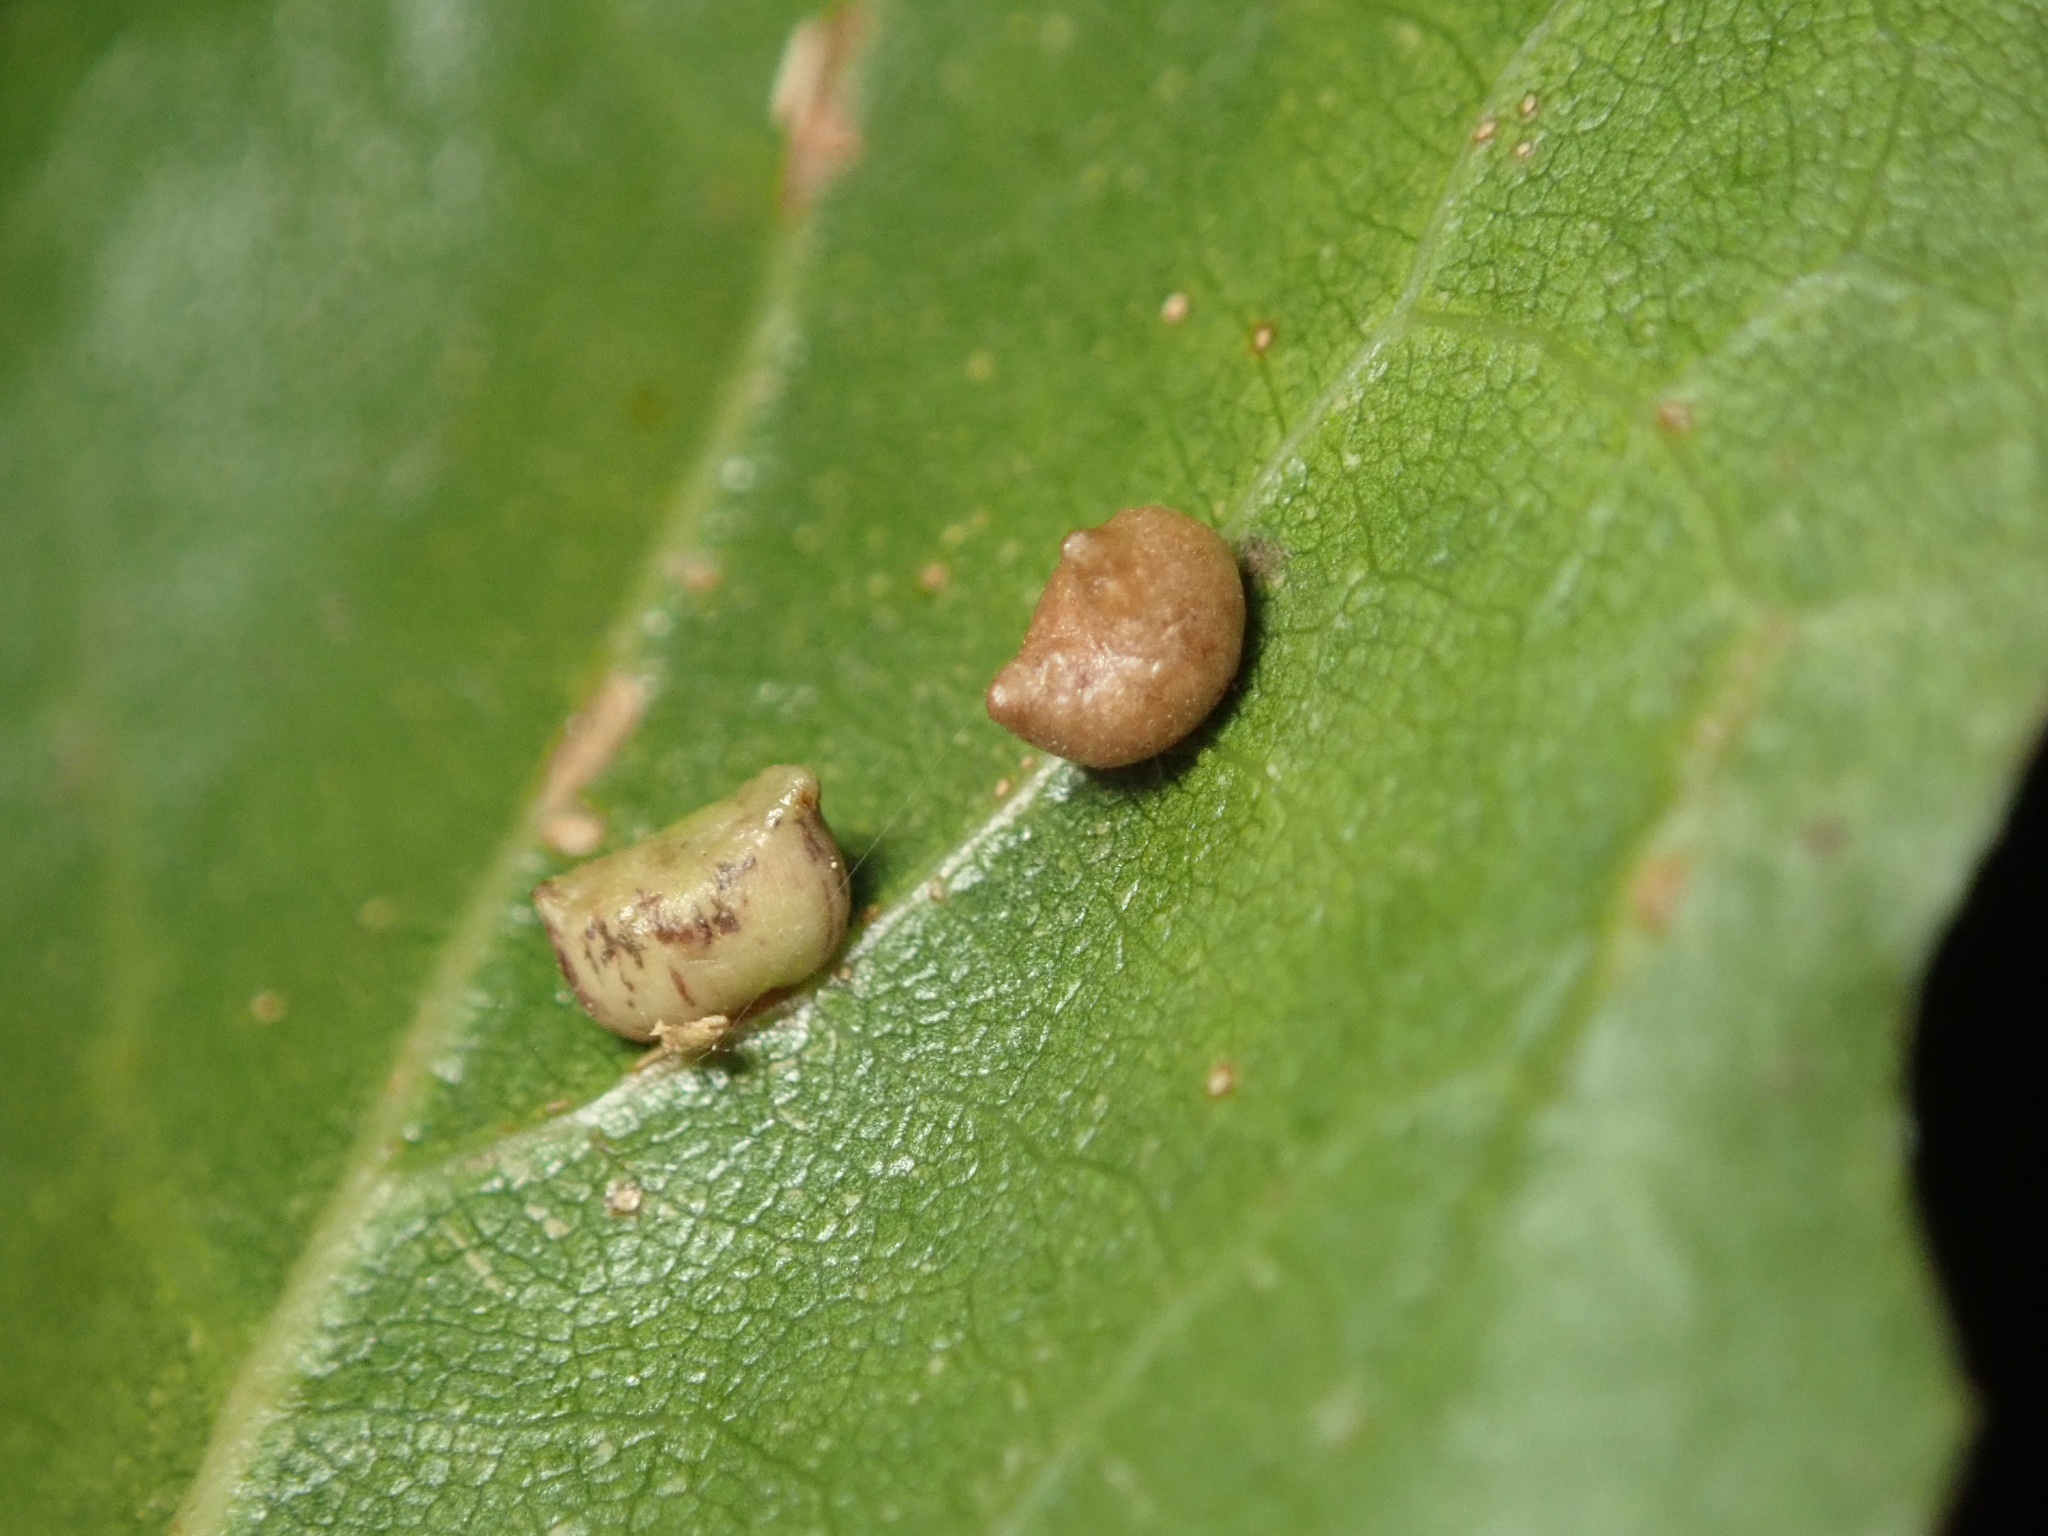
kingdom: Animalia
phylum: Arthropoda
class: Insecta
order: Hymenoptera
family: Cynipidae
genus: Dryocosmus
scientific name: Dryocosmus
